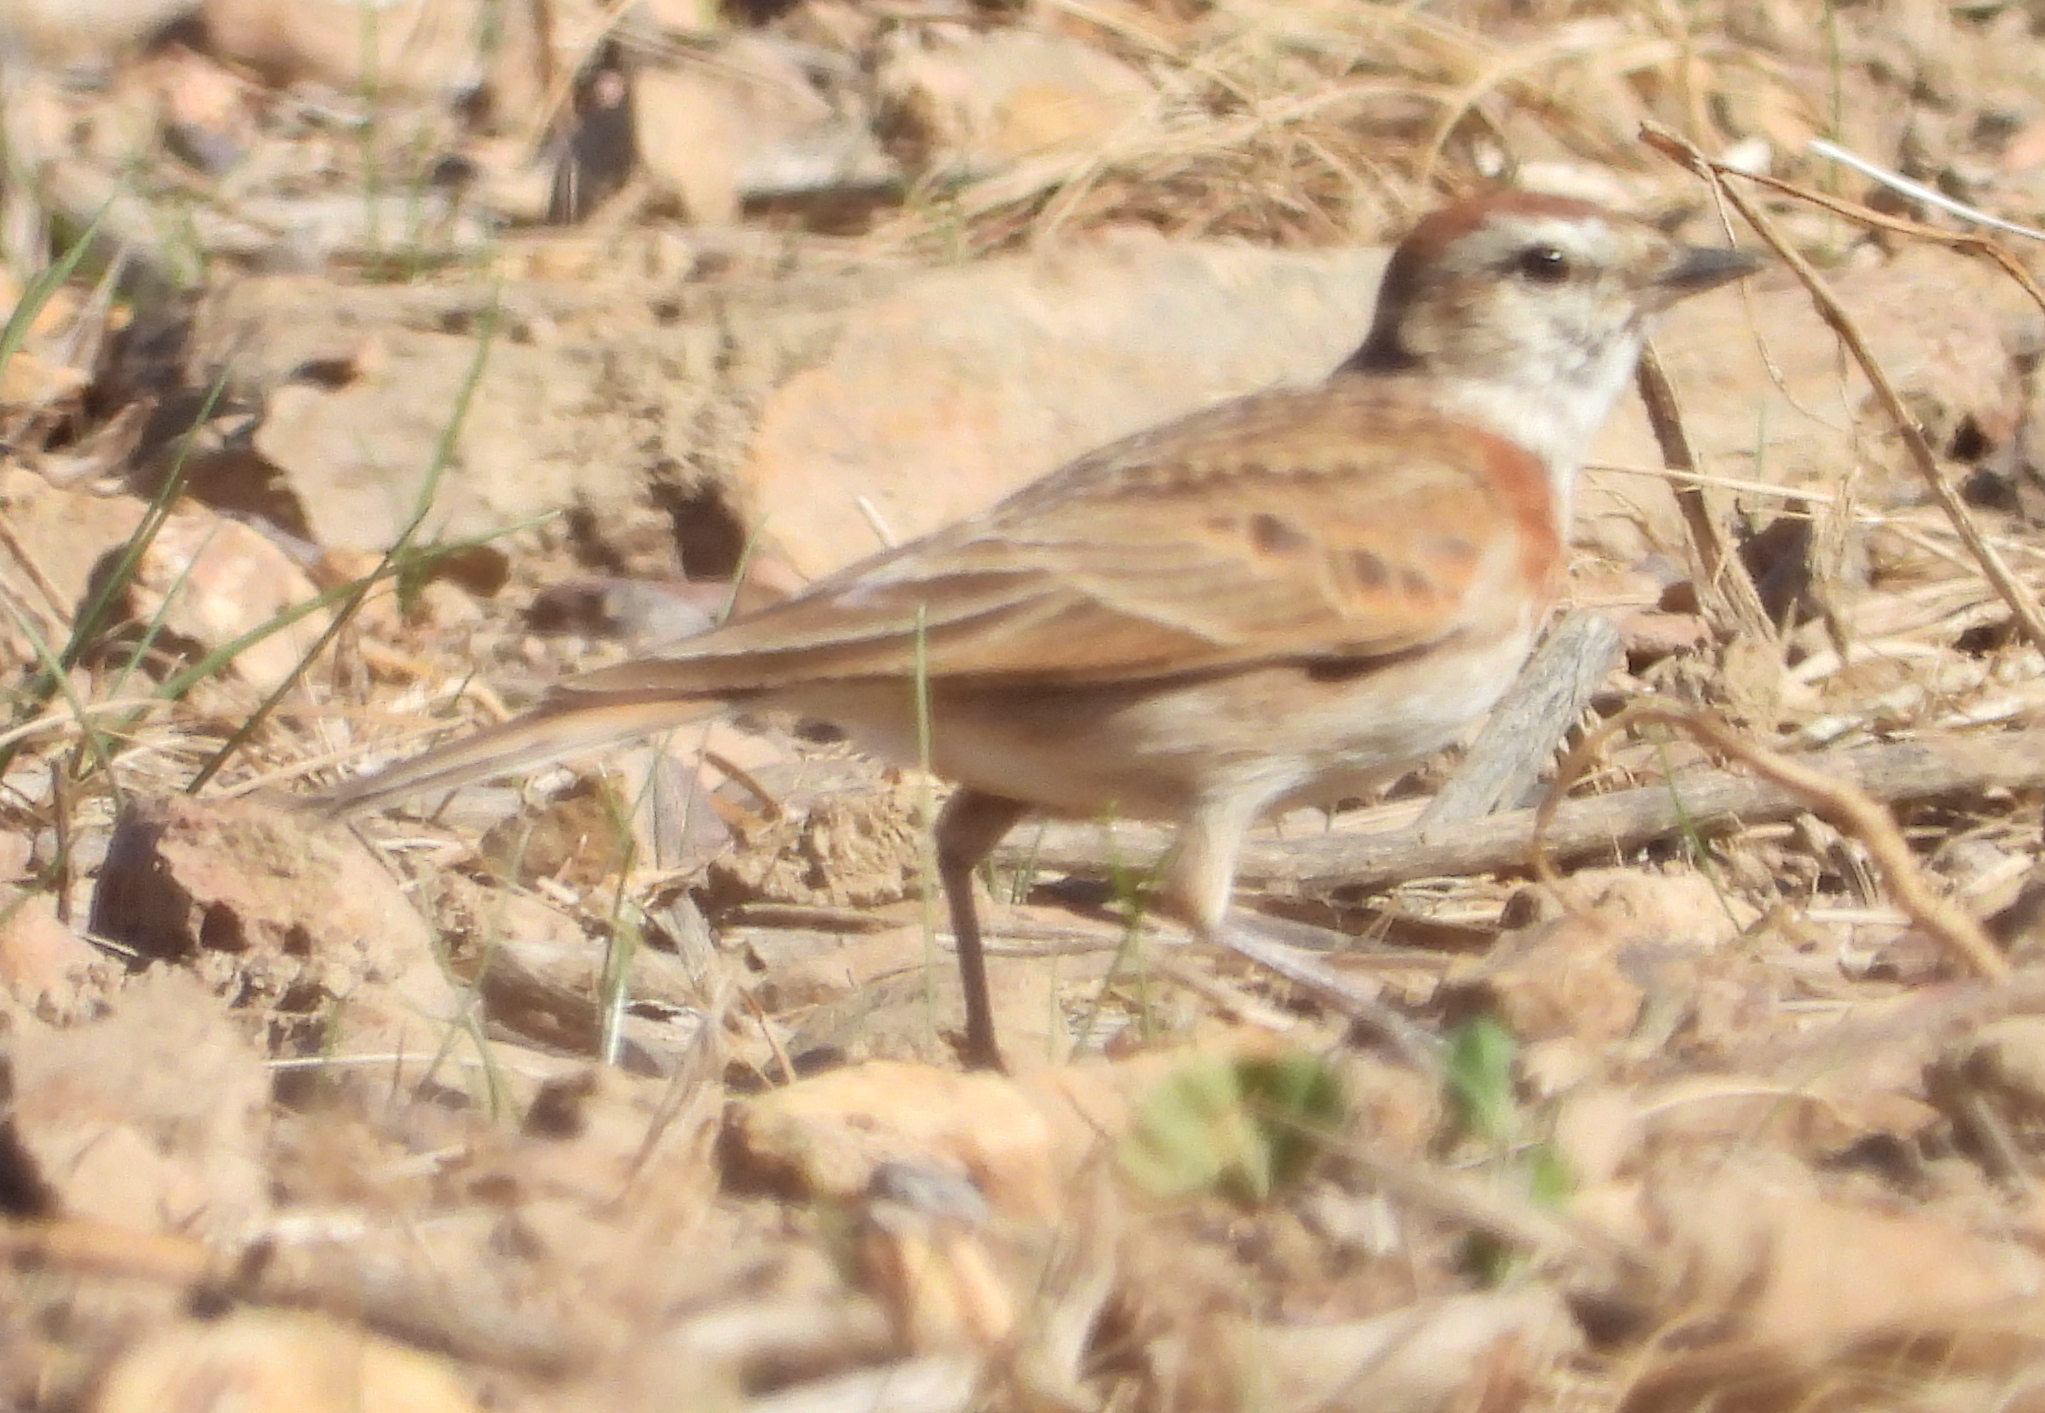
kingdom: Animalia
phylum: Chordata
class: Aves
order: Passeriformes
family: Alaudidae
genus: Calandrella
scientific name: Calandrella cinerea
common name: Red-capped lark
